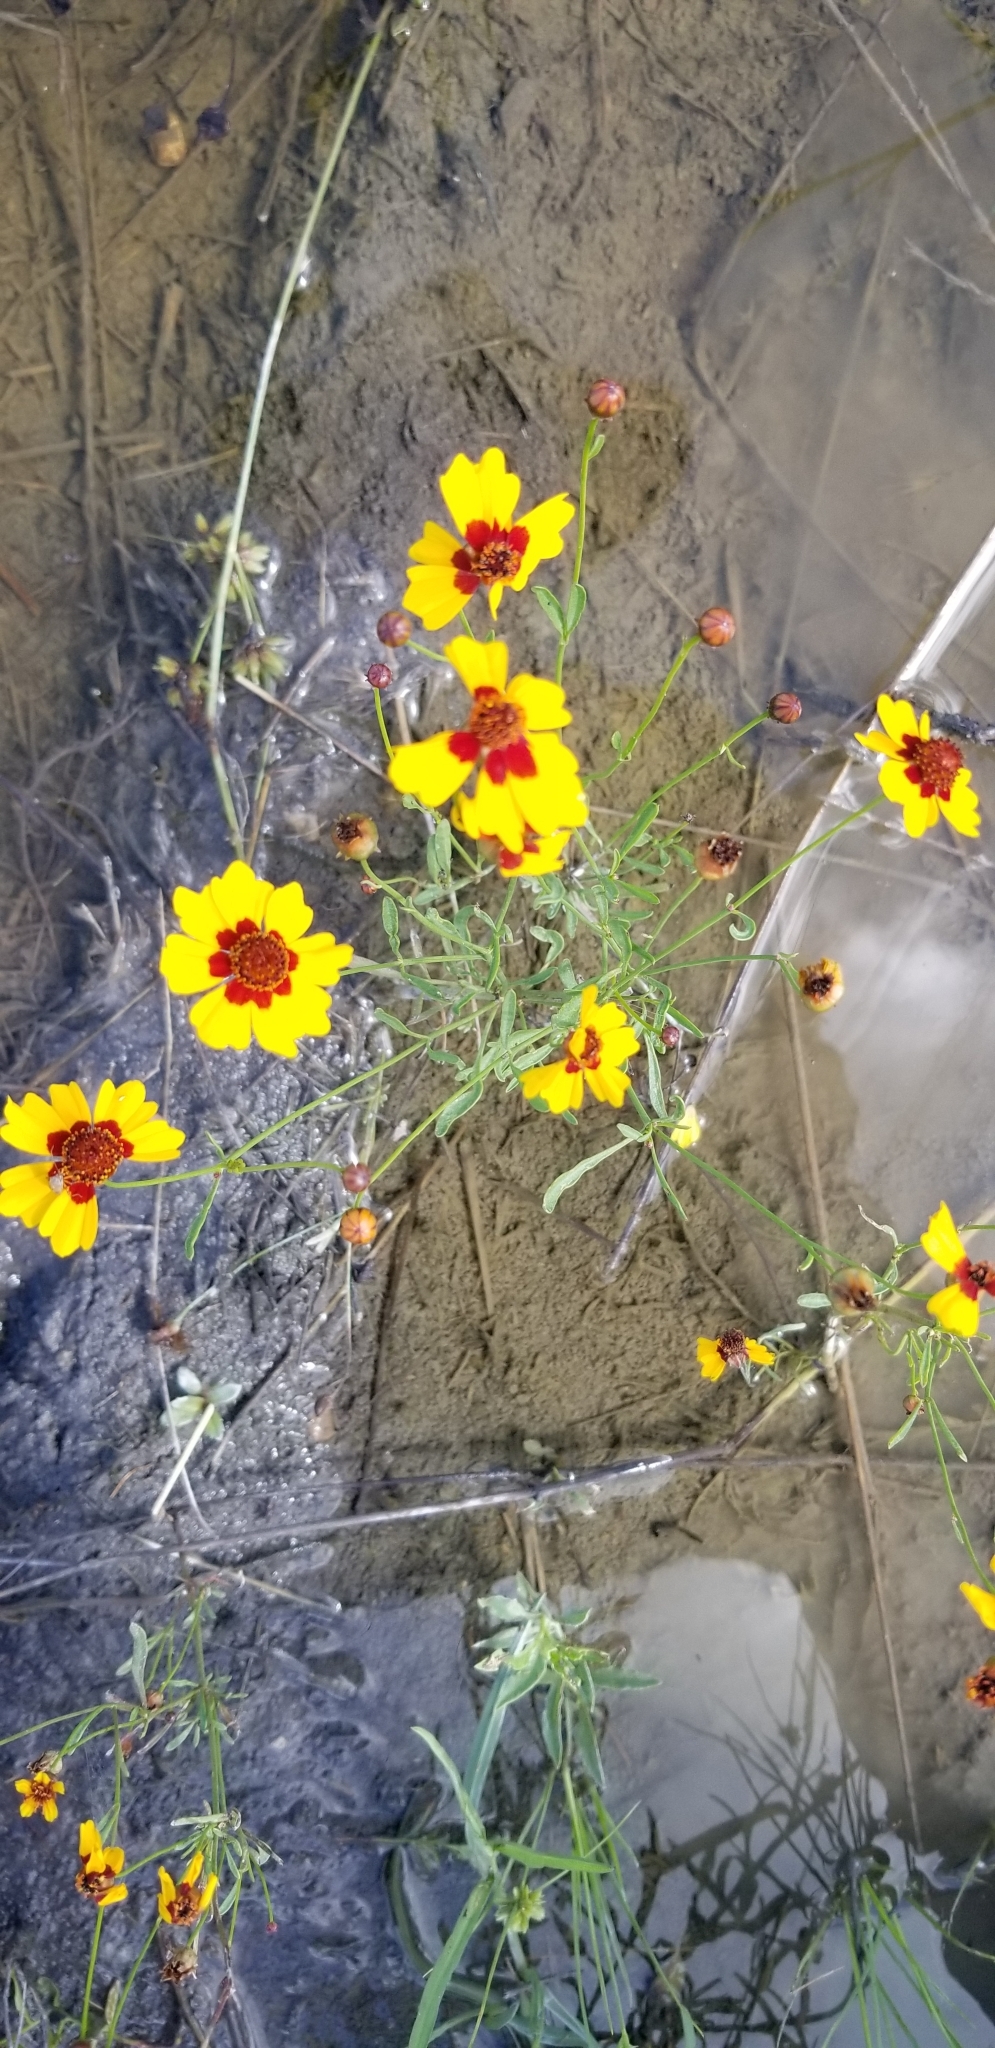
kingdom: Plantae
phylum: Tracheophyta
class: Magnoliopsida
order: Asterales
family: Asteraceae
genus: Coreopsis
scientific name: Coreopsis tinctoria
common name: Garden tickseed
